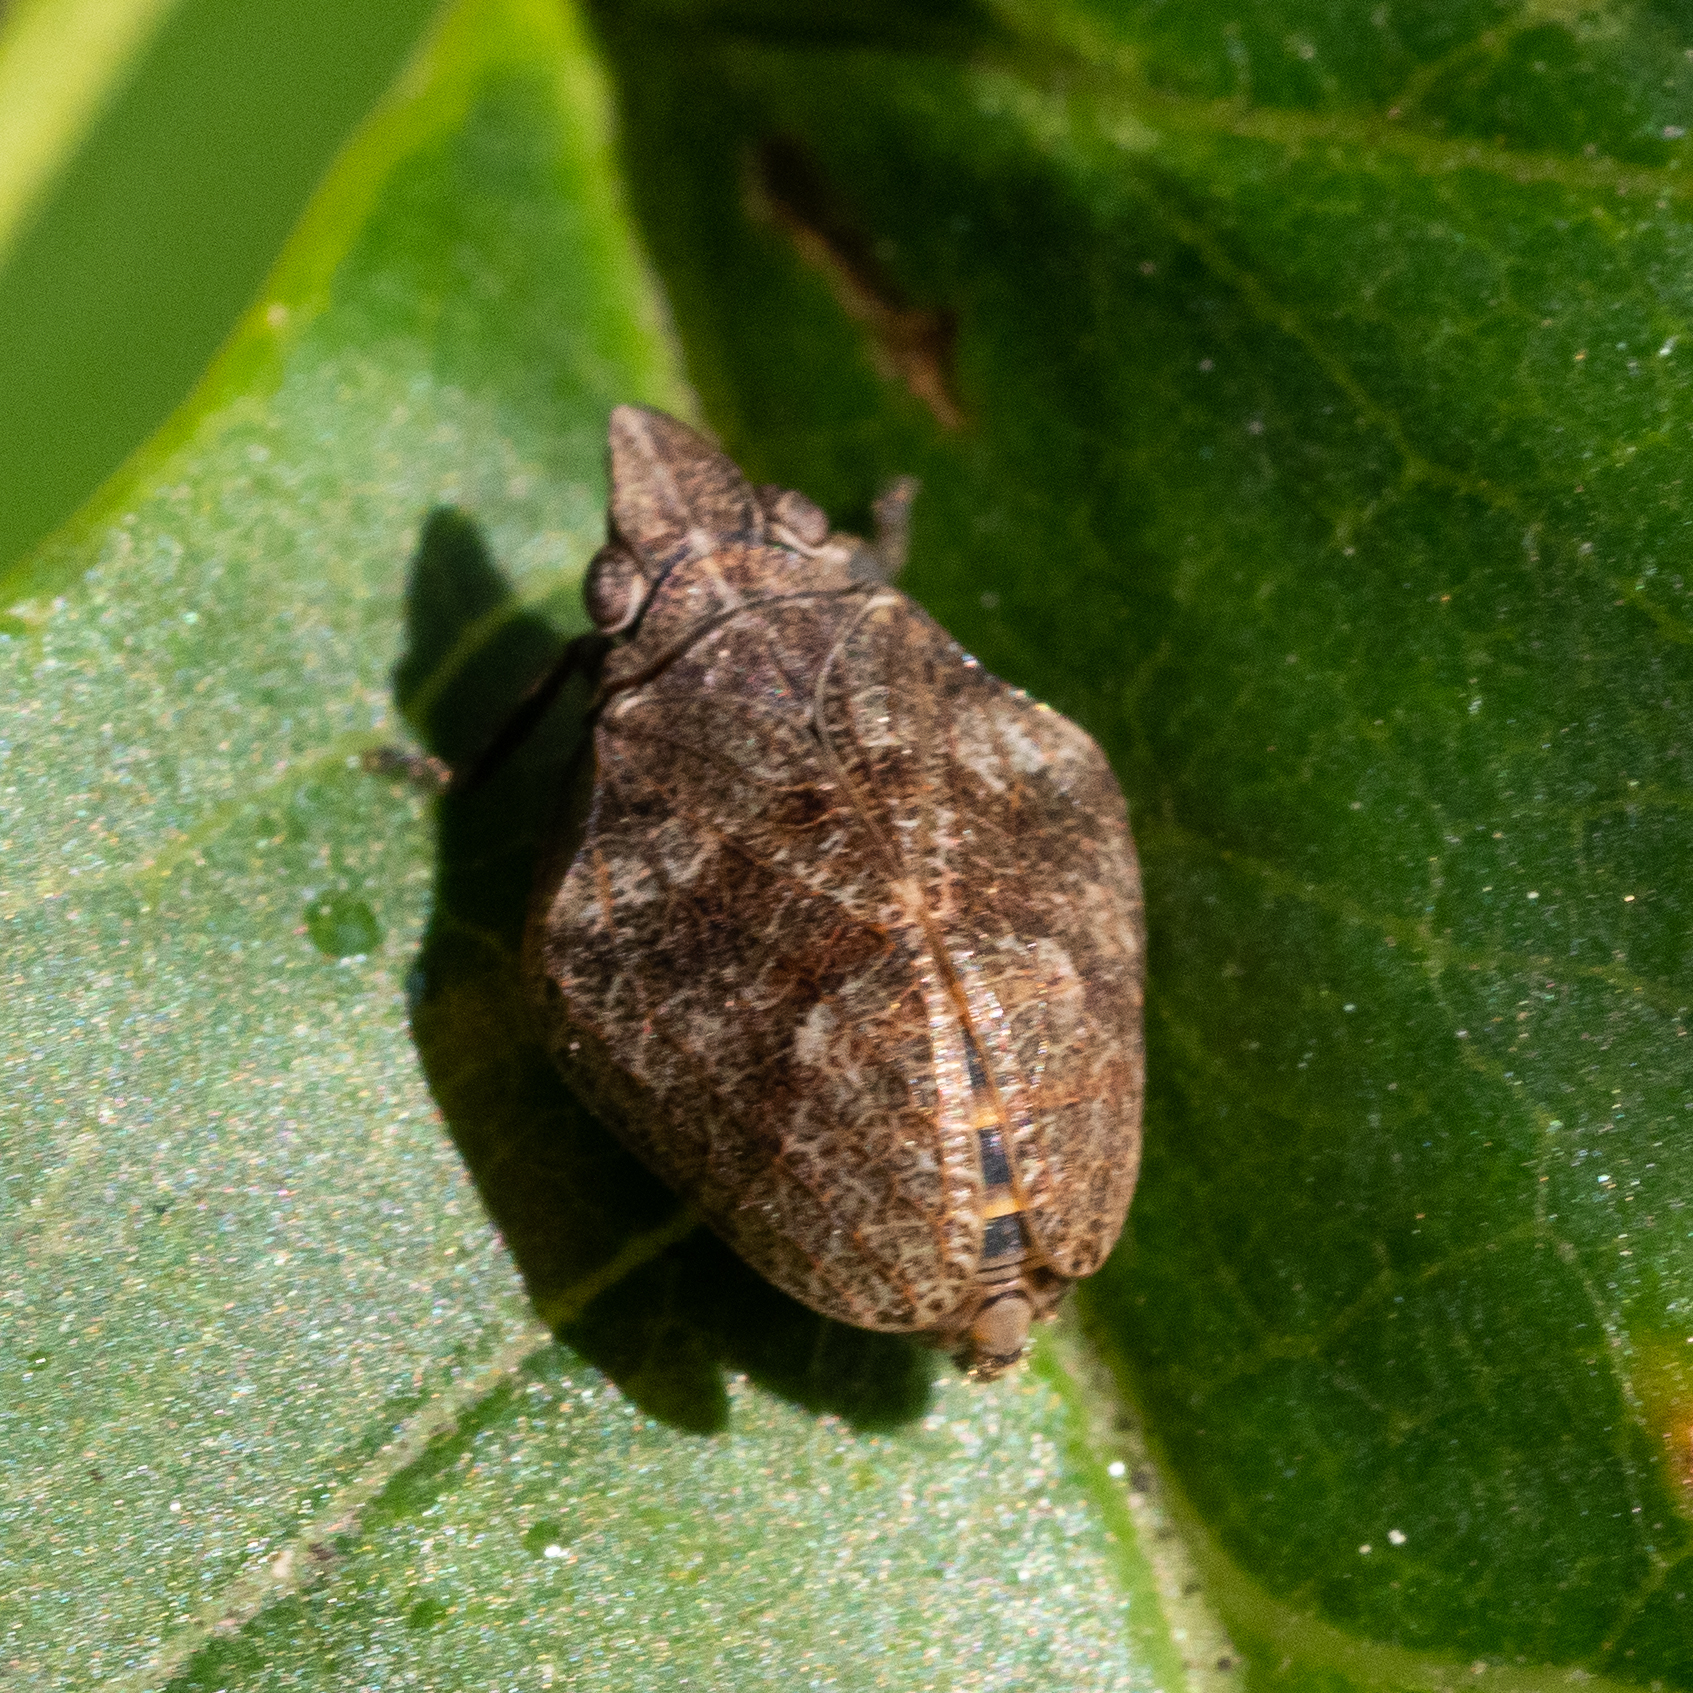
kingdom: Animalia
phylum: Arthropoda
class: Insecta
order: Hemiptera
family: Issidae
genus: Mycterodus
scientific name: Mycterodus cuniceps
